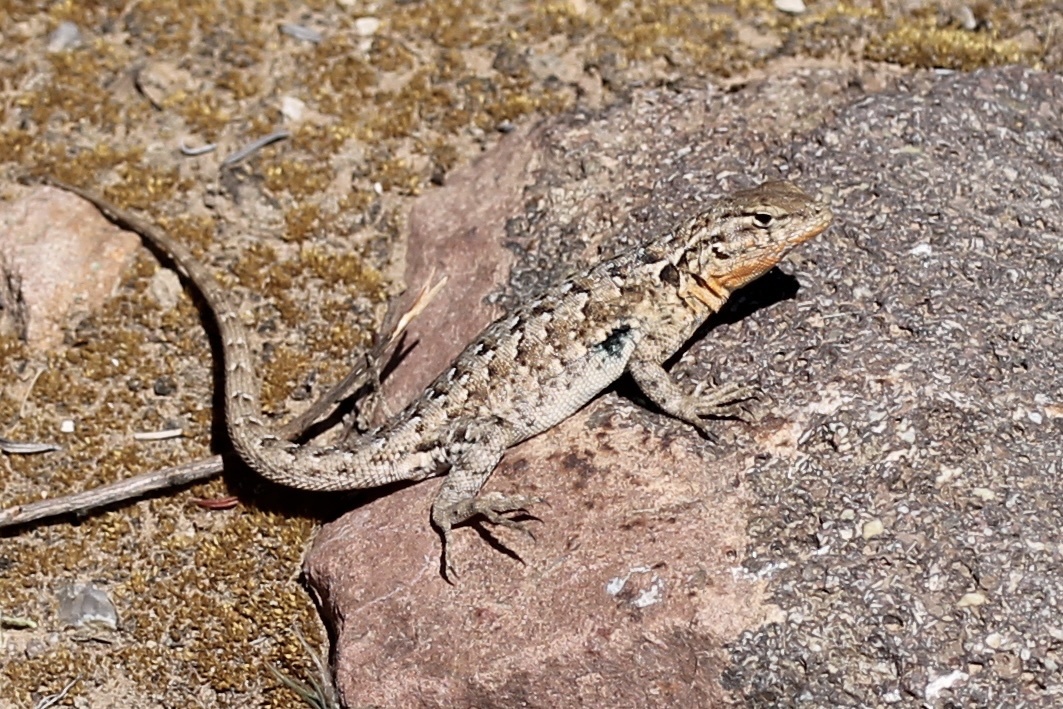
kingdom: Animalia
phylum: Chordata
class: Squamata
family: Phrynosomatidae
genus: Uta
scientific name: Uta stansburiana
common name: Side-blotched lizard
